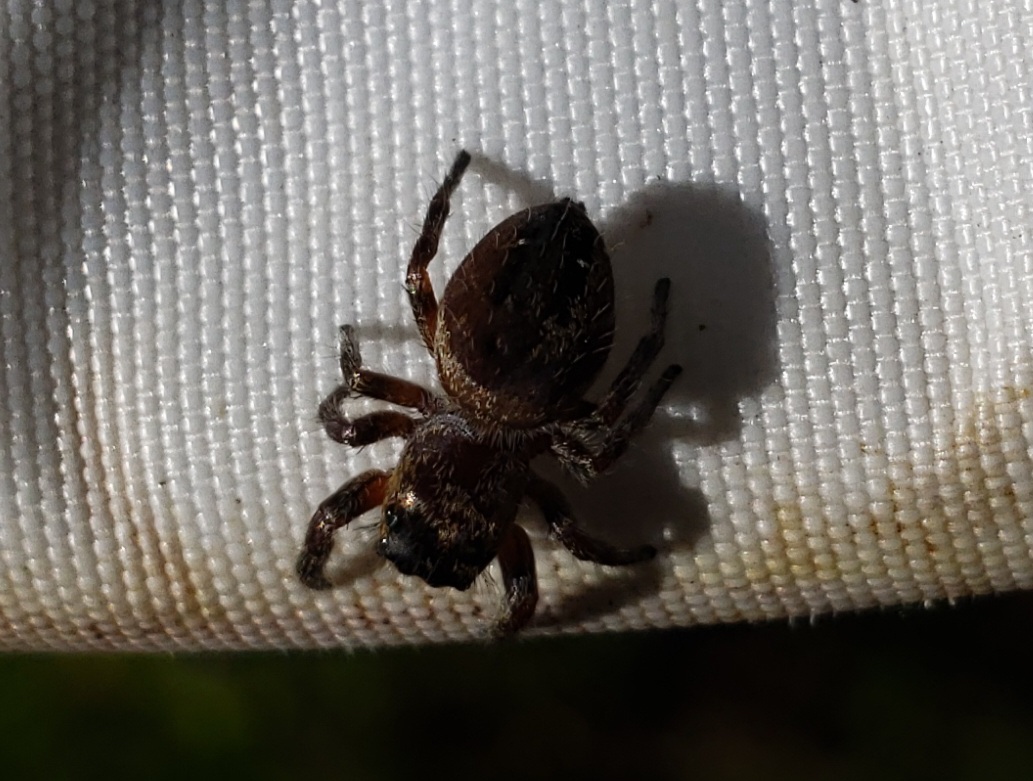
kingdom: Animalia
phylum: Arthropoda
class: Arachnida
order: Araneae
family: Salticidae
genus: Phidippus
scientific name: Phidippus clarus
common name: Brilliant jumping spider
